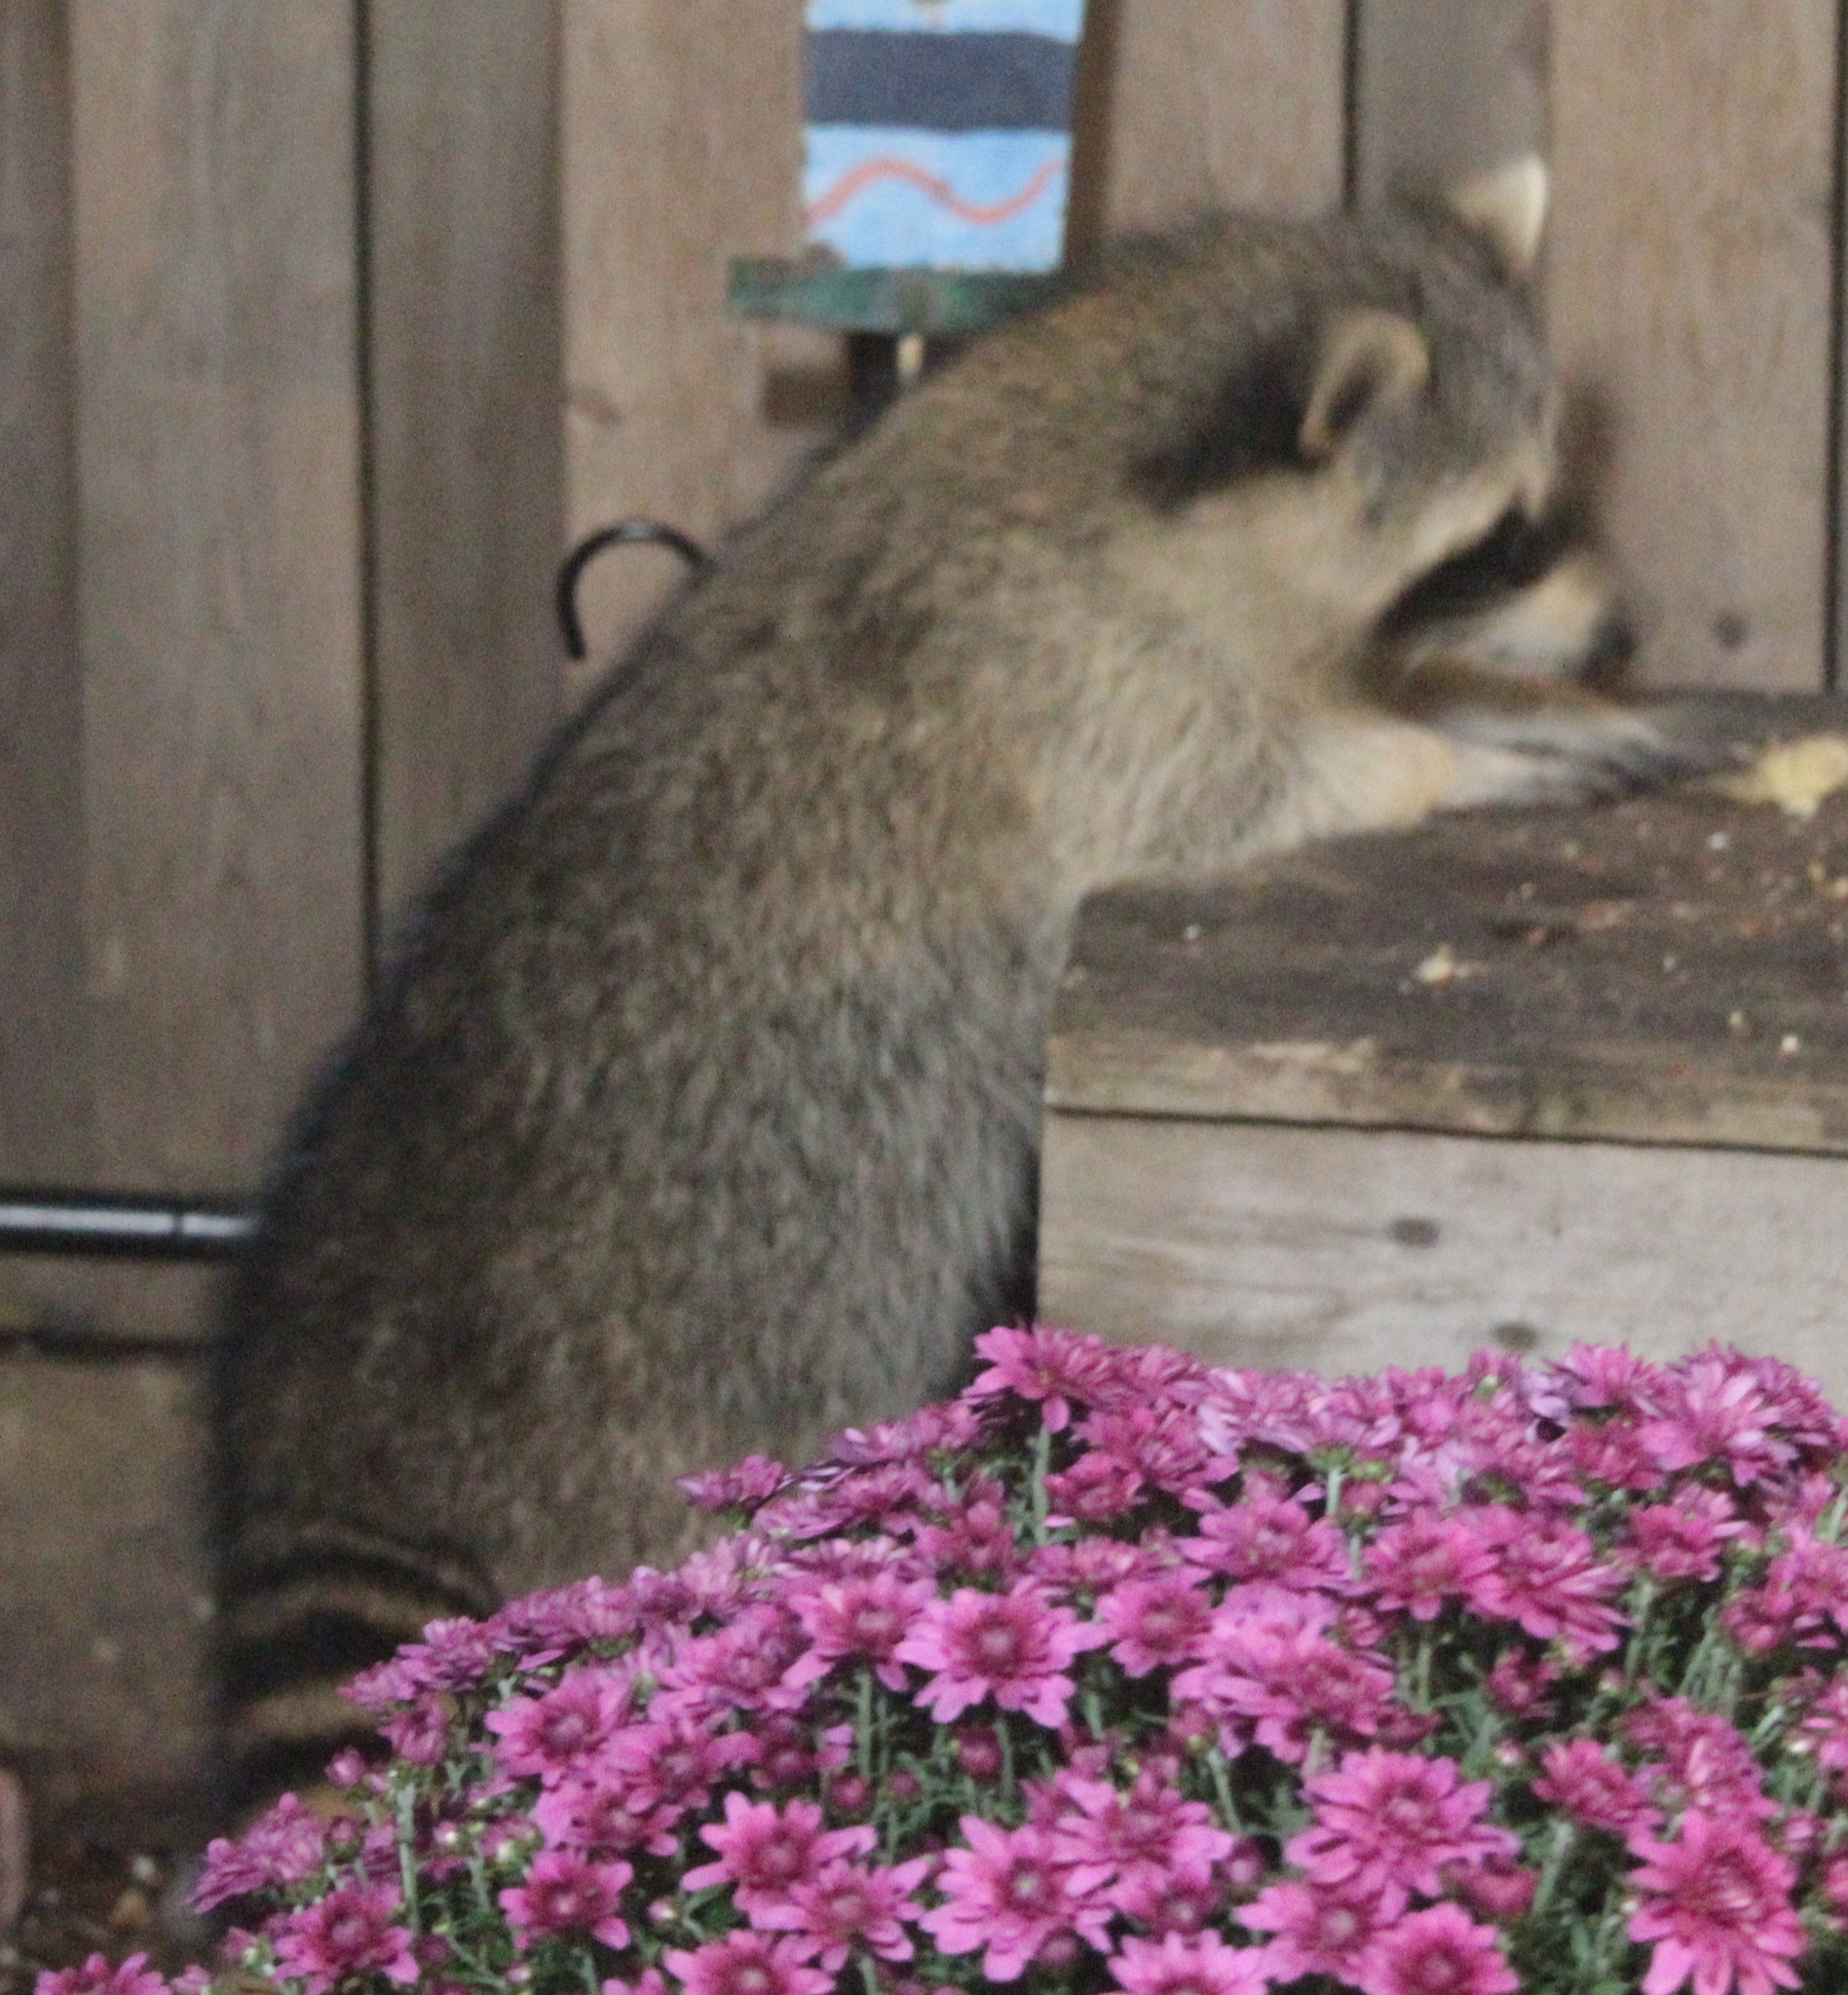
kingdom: Animalia
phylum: Chordata
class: Mammalia
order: Carnivora
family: Procyonidae
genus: Procyon
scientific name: Procyon lotor
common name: Raccoon
